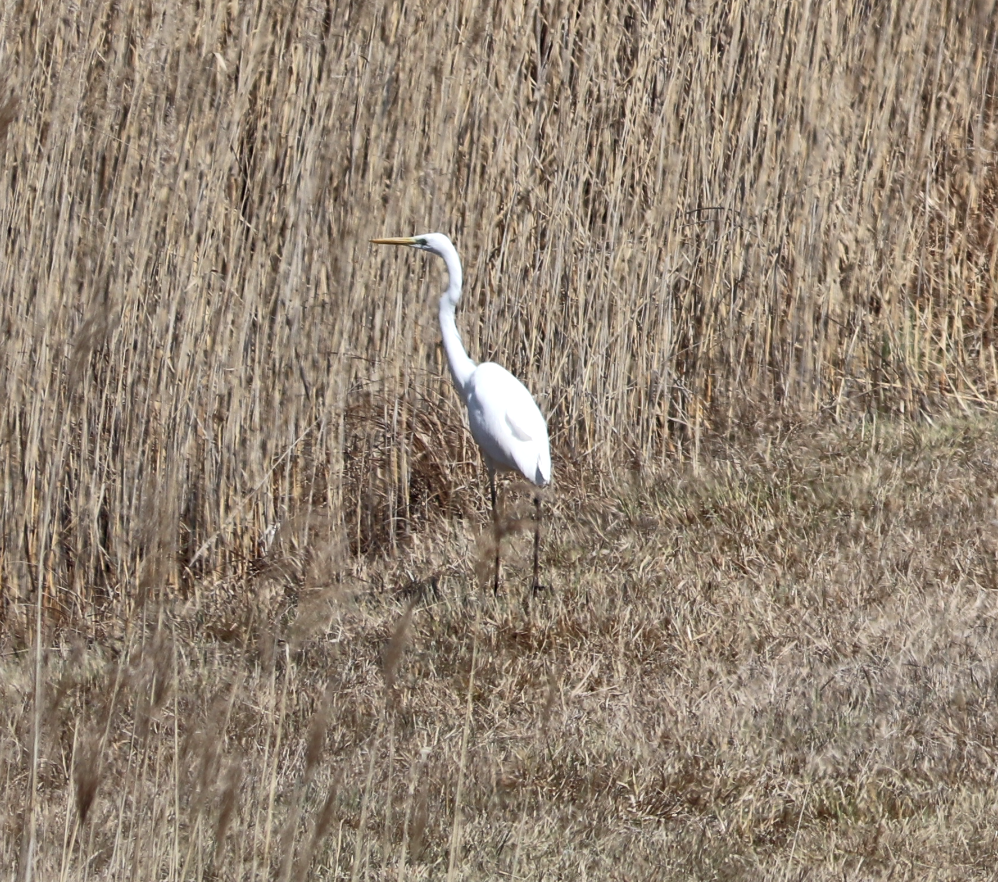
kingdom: Animalia
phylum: Chordata
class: Aves
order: Pelecaniformes
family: Ardeidae
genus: Ardea
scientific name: Ardea alba
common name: Great egret
